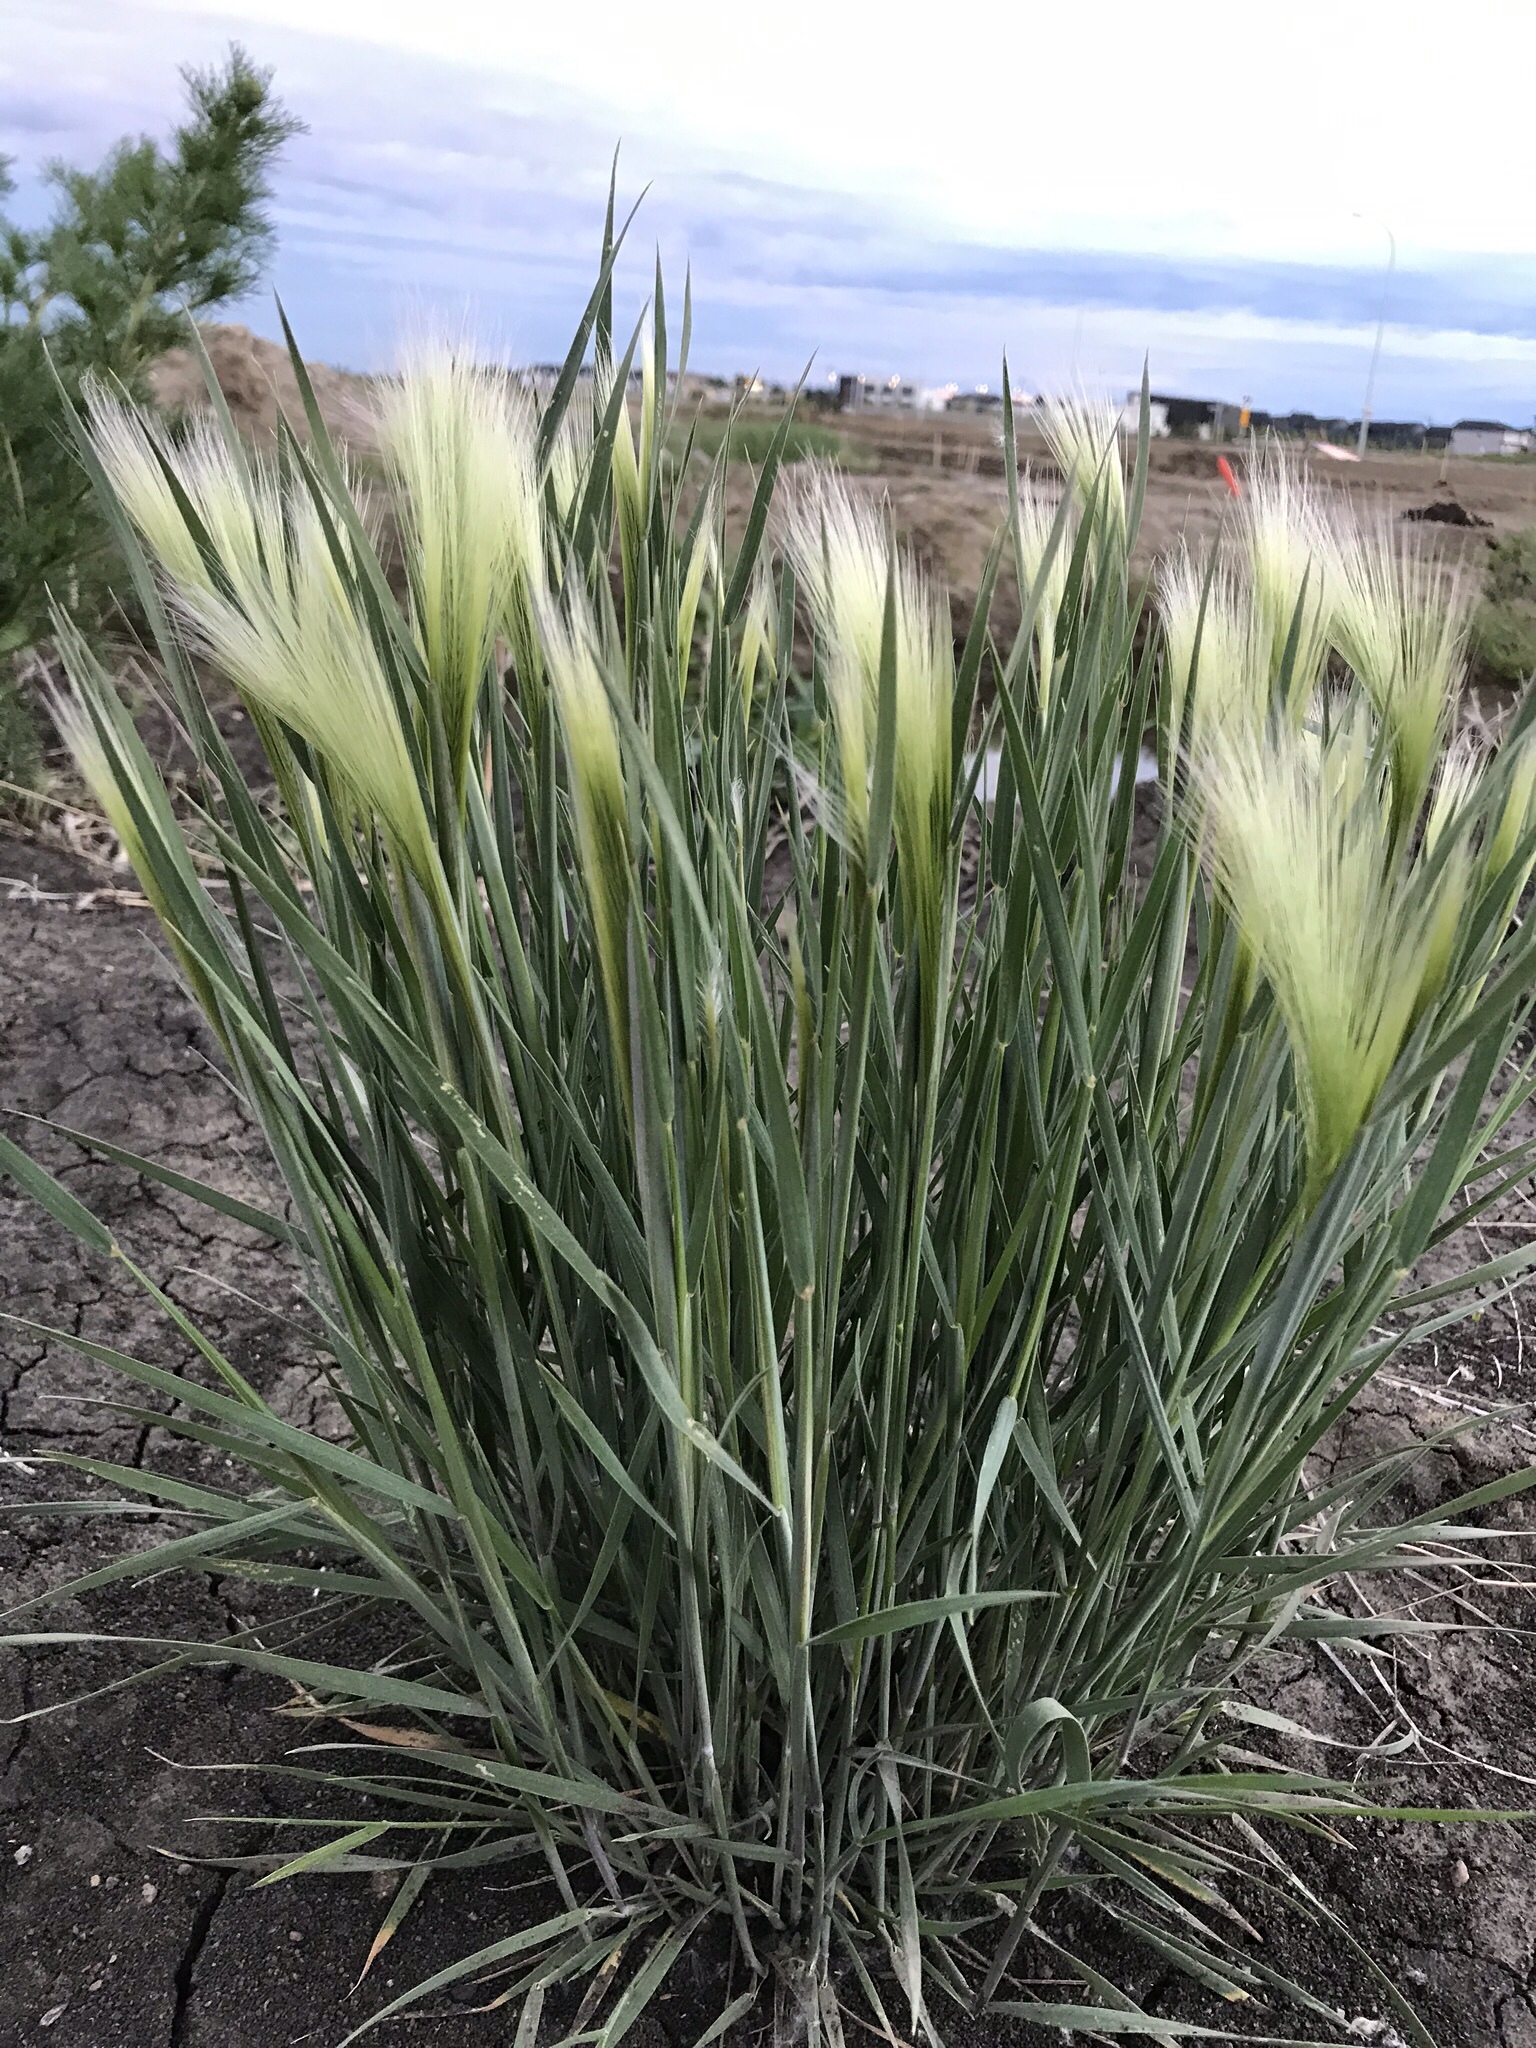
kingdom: Plantae
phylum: Tracheophyta
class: Liliopsida
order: Poales
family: Poaceae
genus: Hordeum
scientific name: Hordeum jubatum
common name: Foxtail barley
